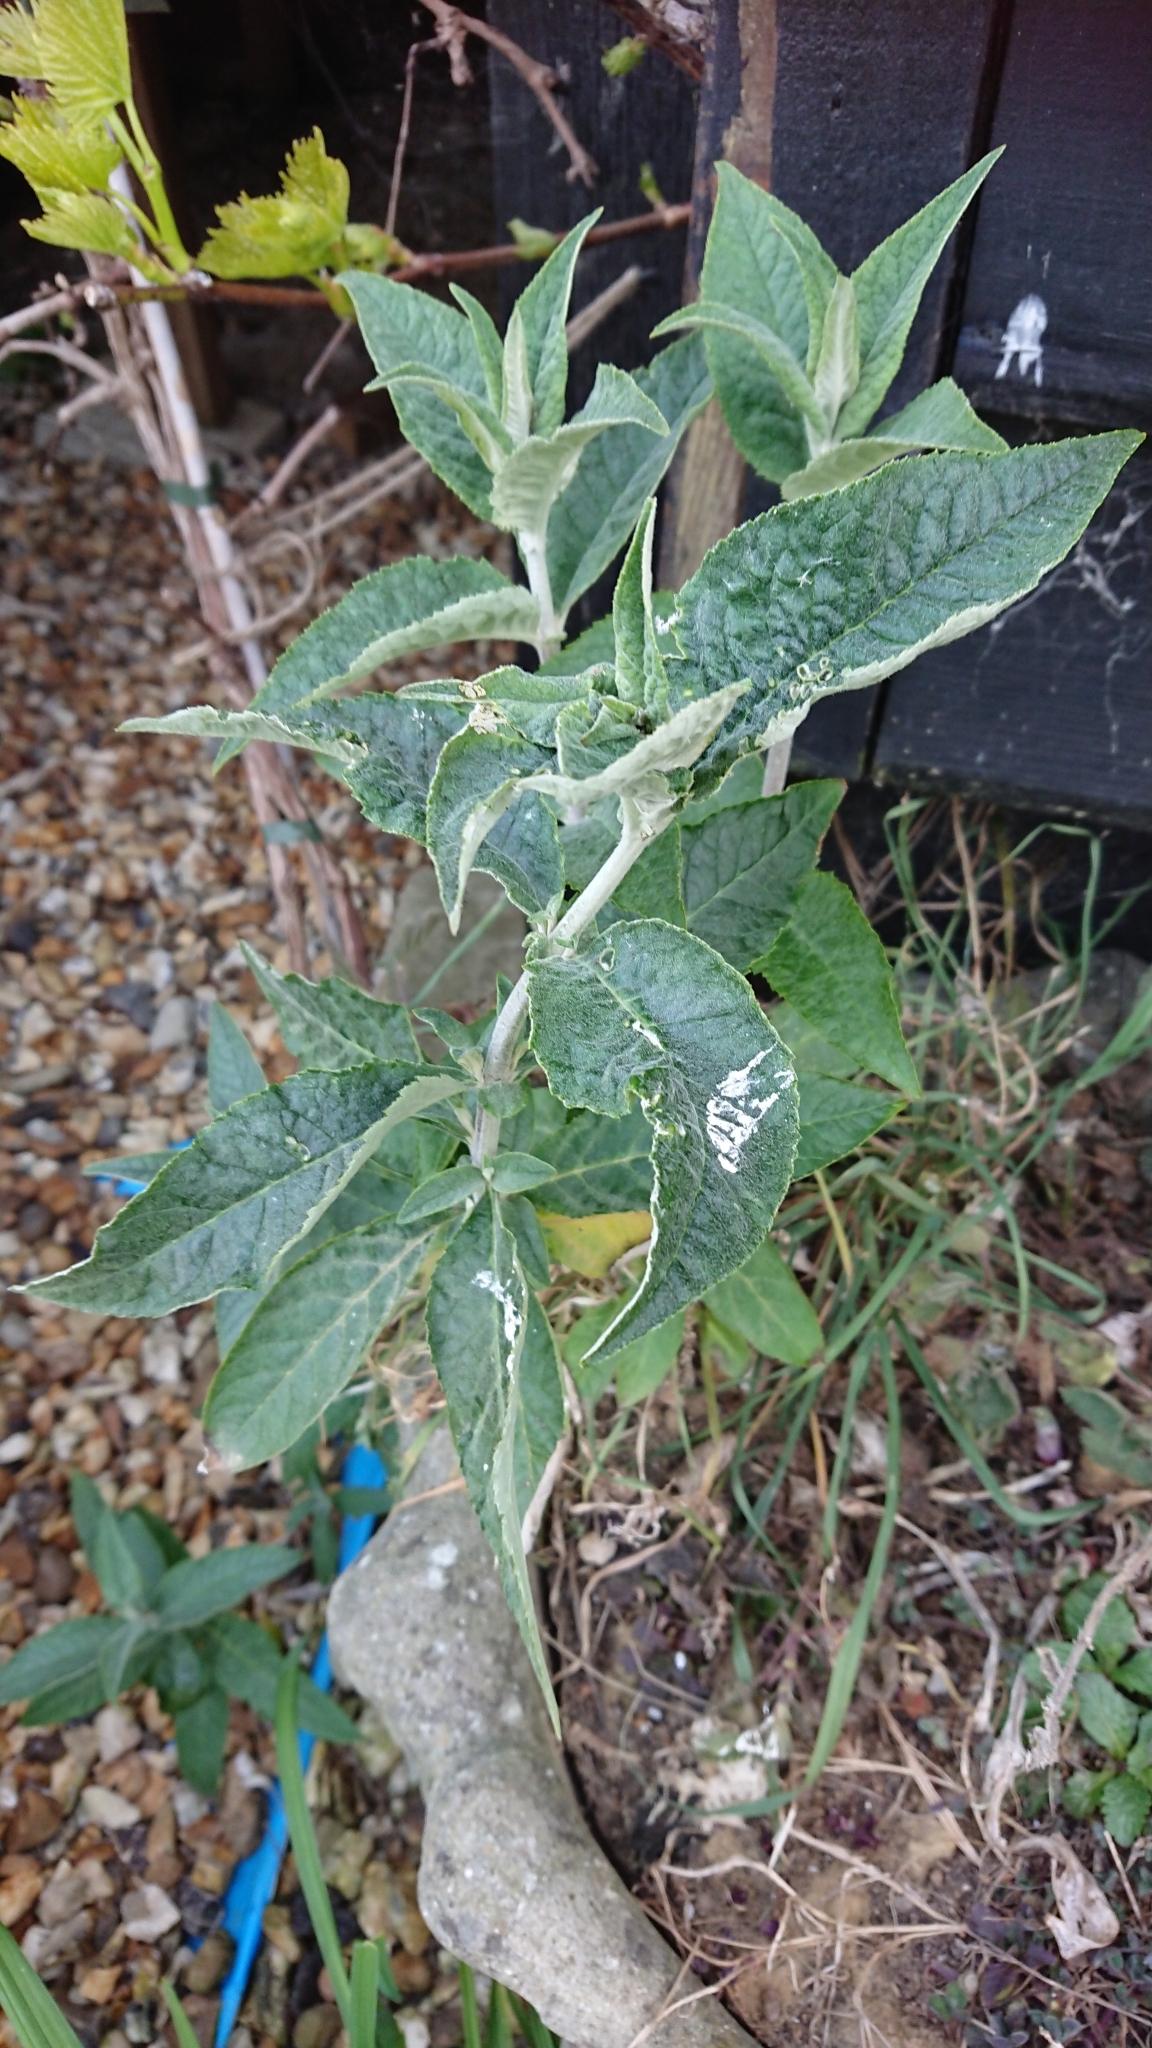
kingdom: Plantae
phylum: Tracheophyta
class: Magnoliopsida
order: Lamiales
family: Scrophulariaceae
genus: Buddleja
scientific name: Buddleja davidii
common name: Butterfly-bush
